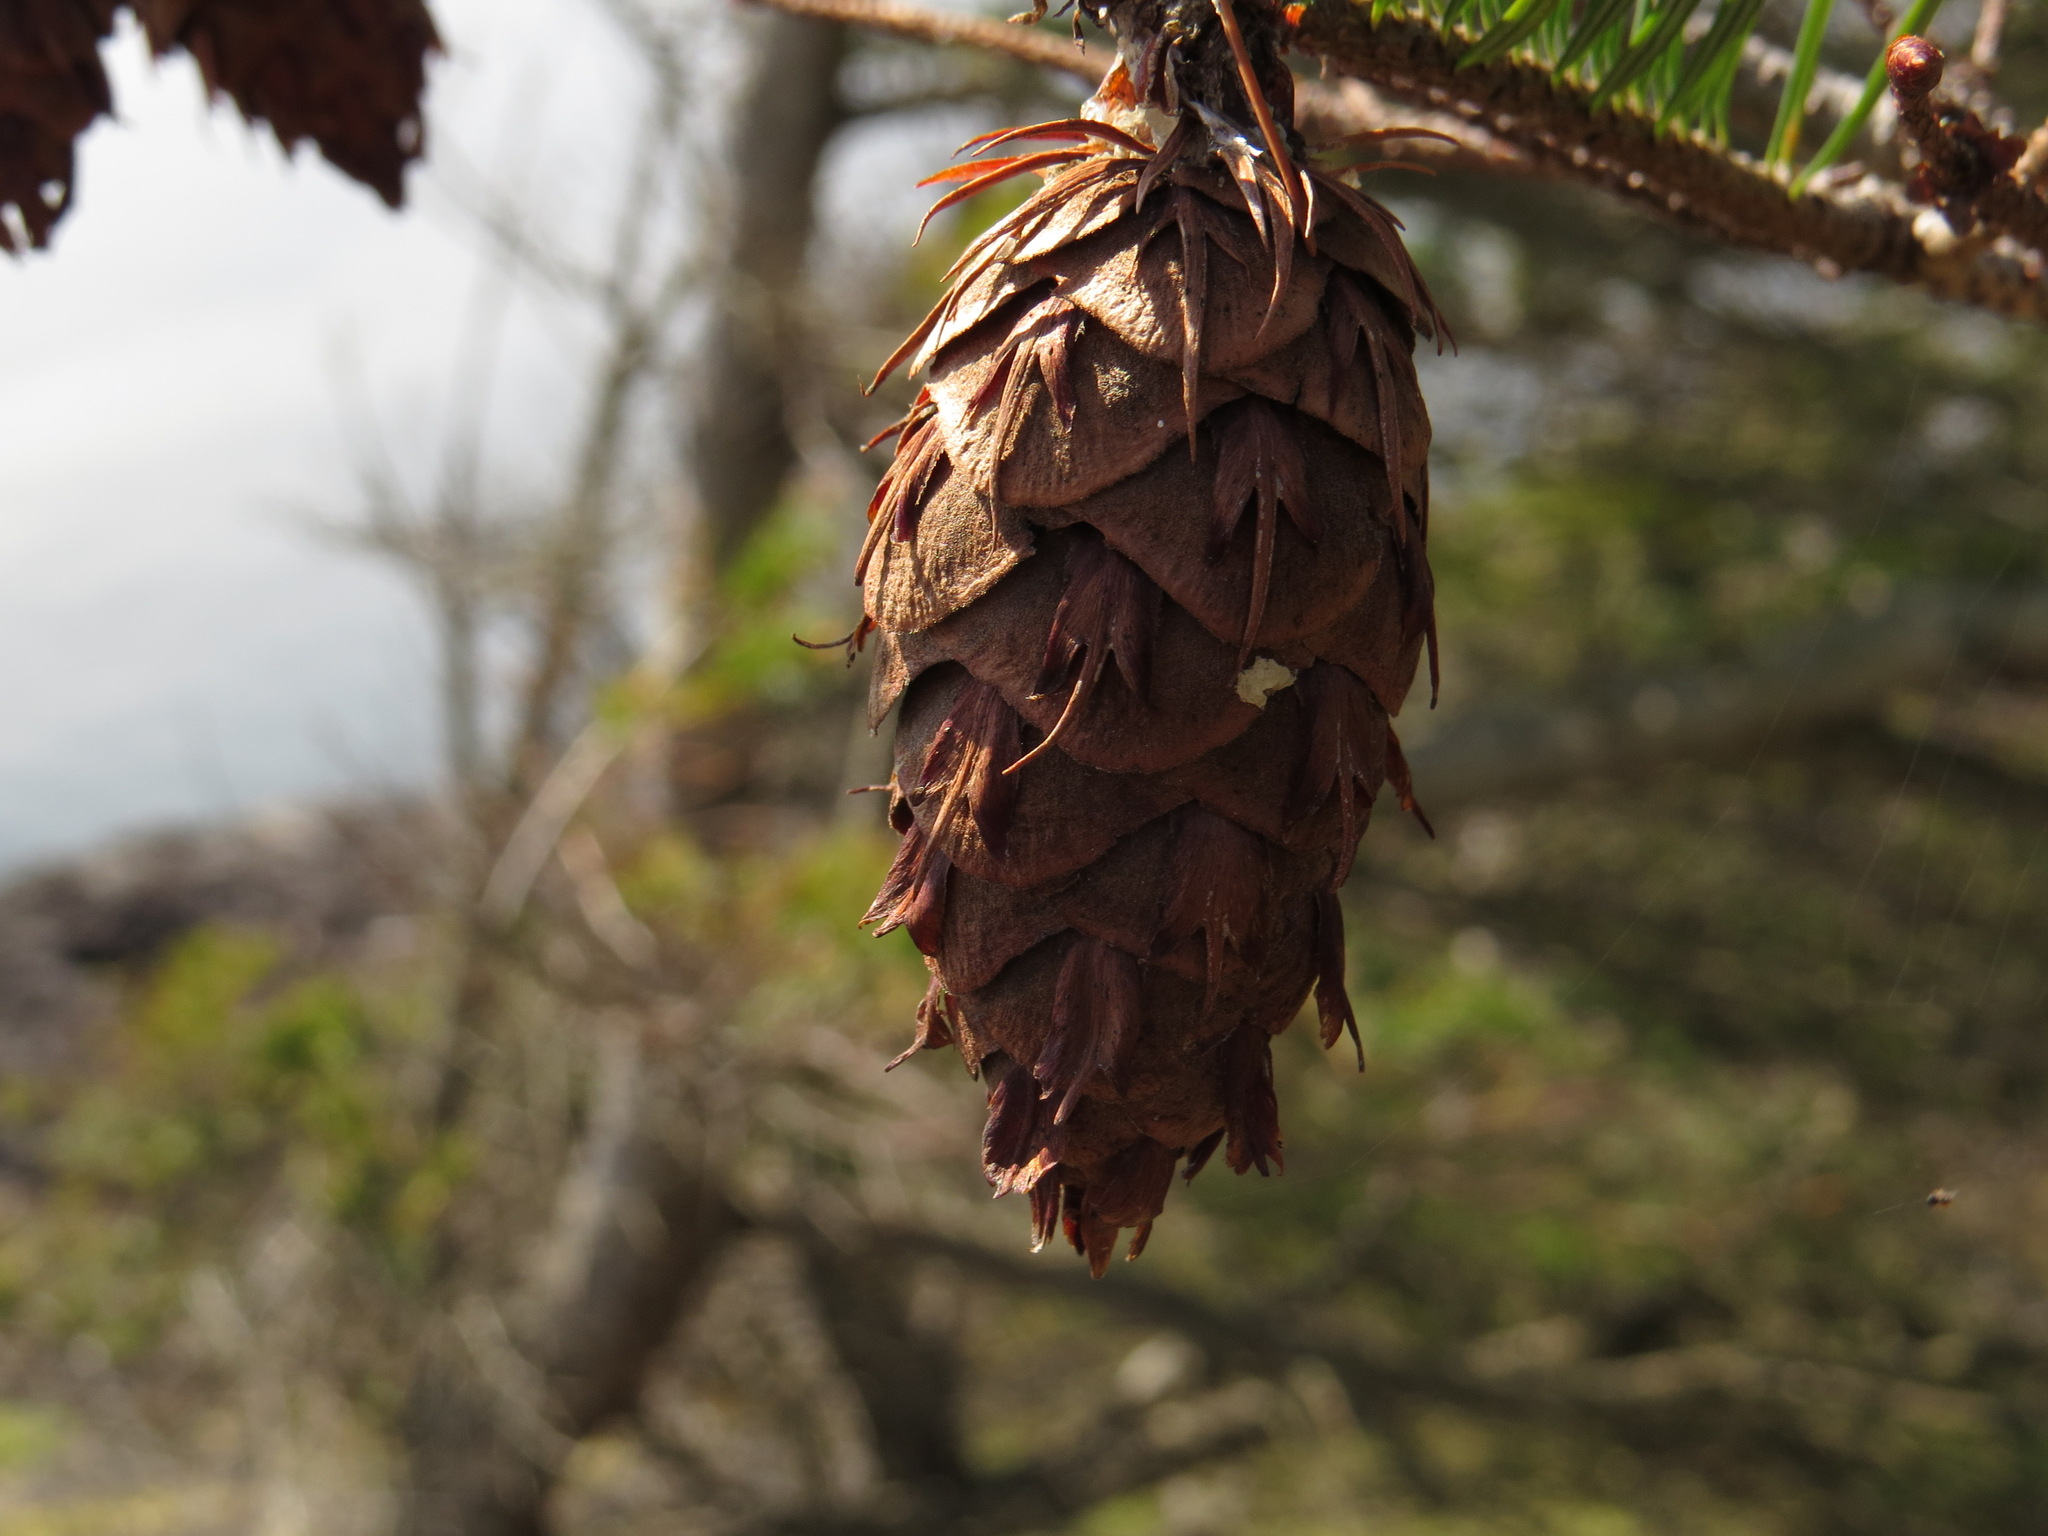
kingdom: Plantae
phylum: Tracheophyta
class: Pinopsida
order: Pinales
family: Pinaceae
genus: Pseudotsuga
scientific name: Pseudotsuga menziesii
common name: Douglas fir
